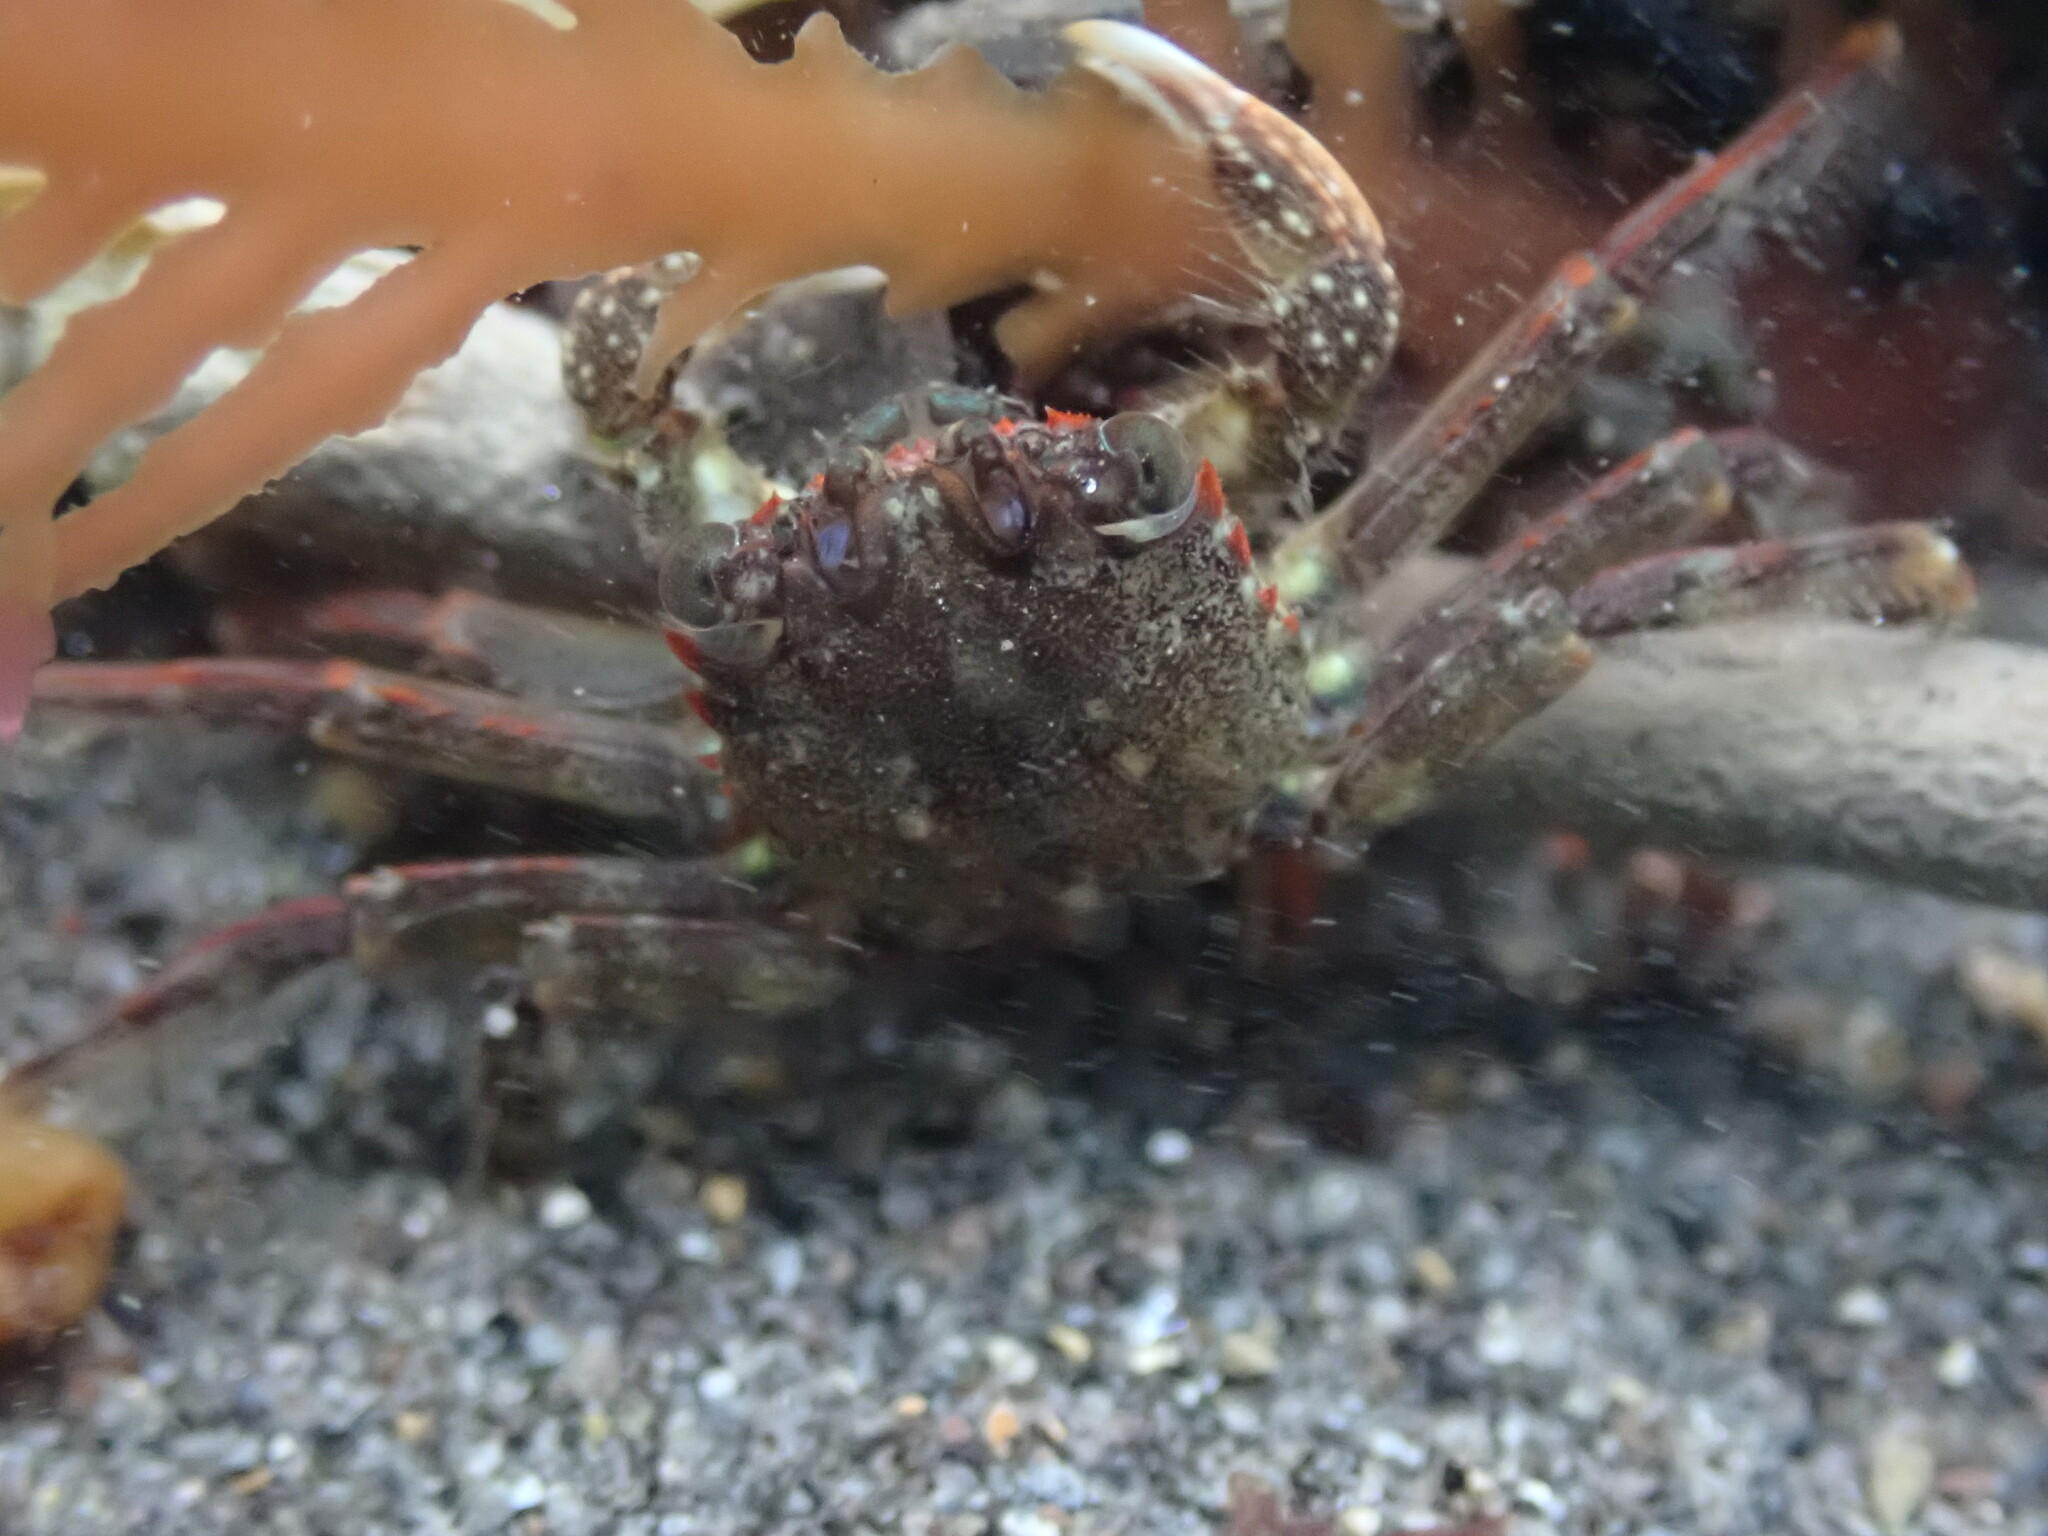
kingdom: Animalia
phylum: Arthropoda
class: Malacostraca
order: Decapoda
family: Plagusiidae
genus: Guinusia
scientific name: Guinusia chabrus
